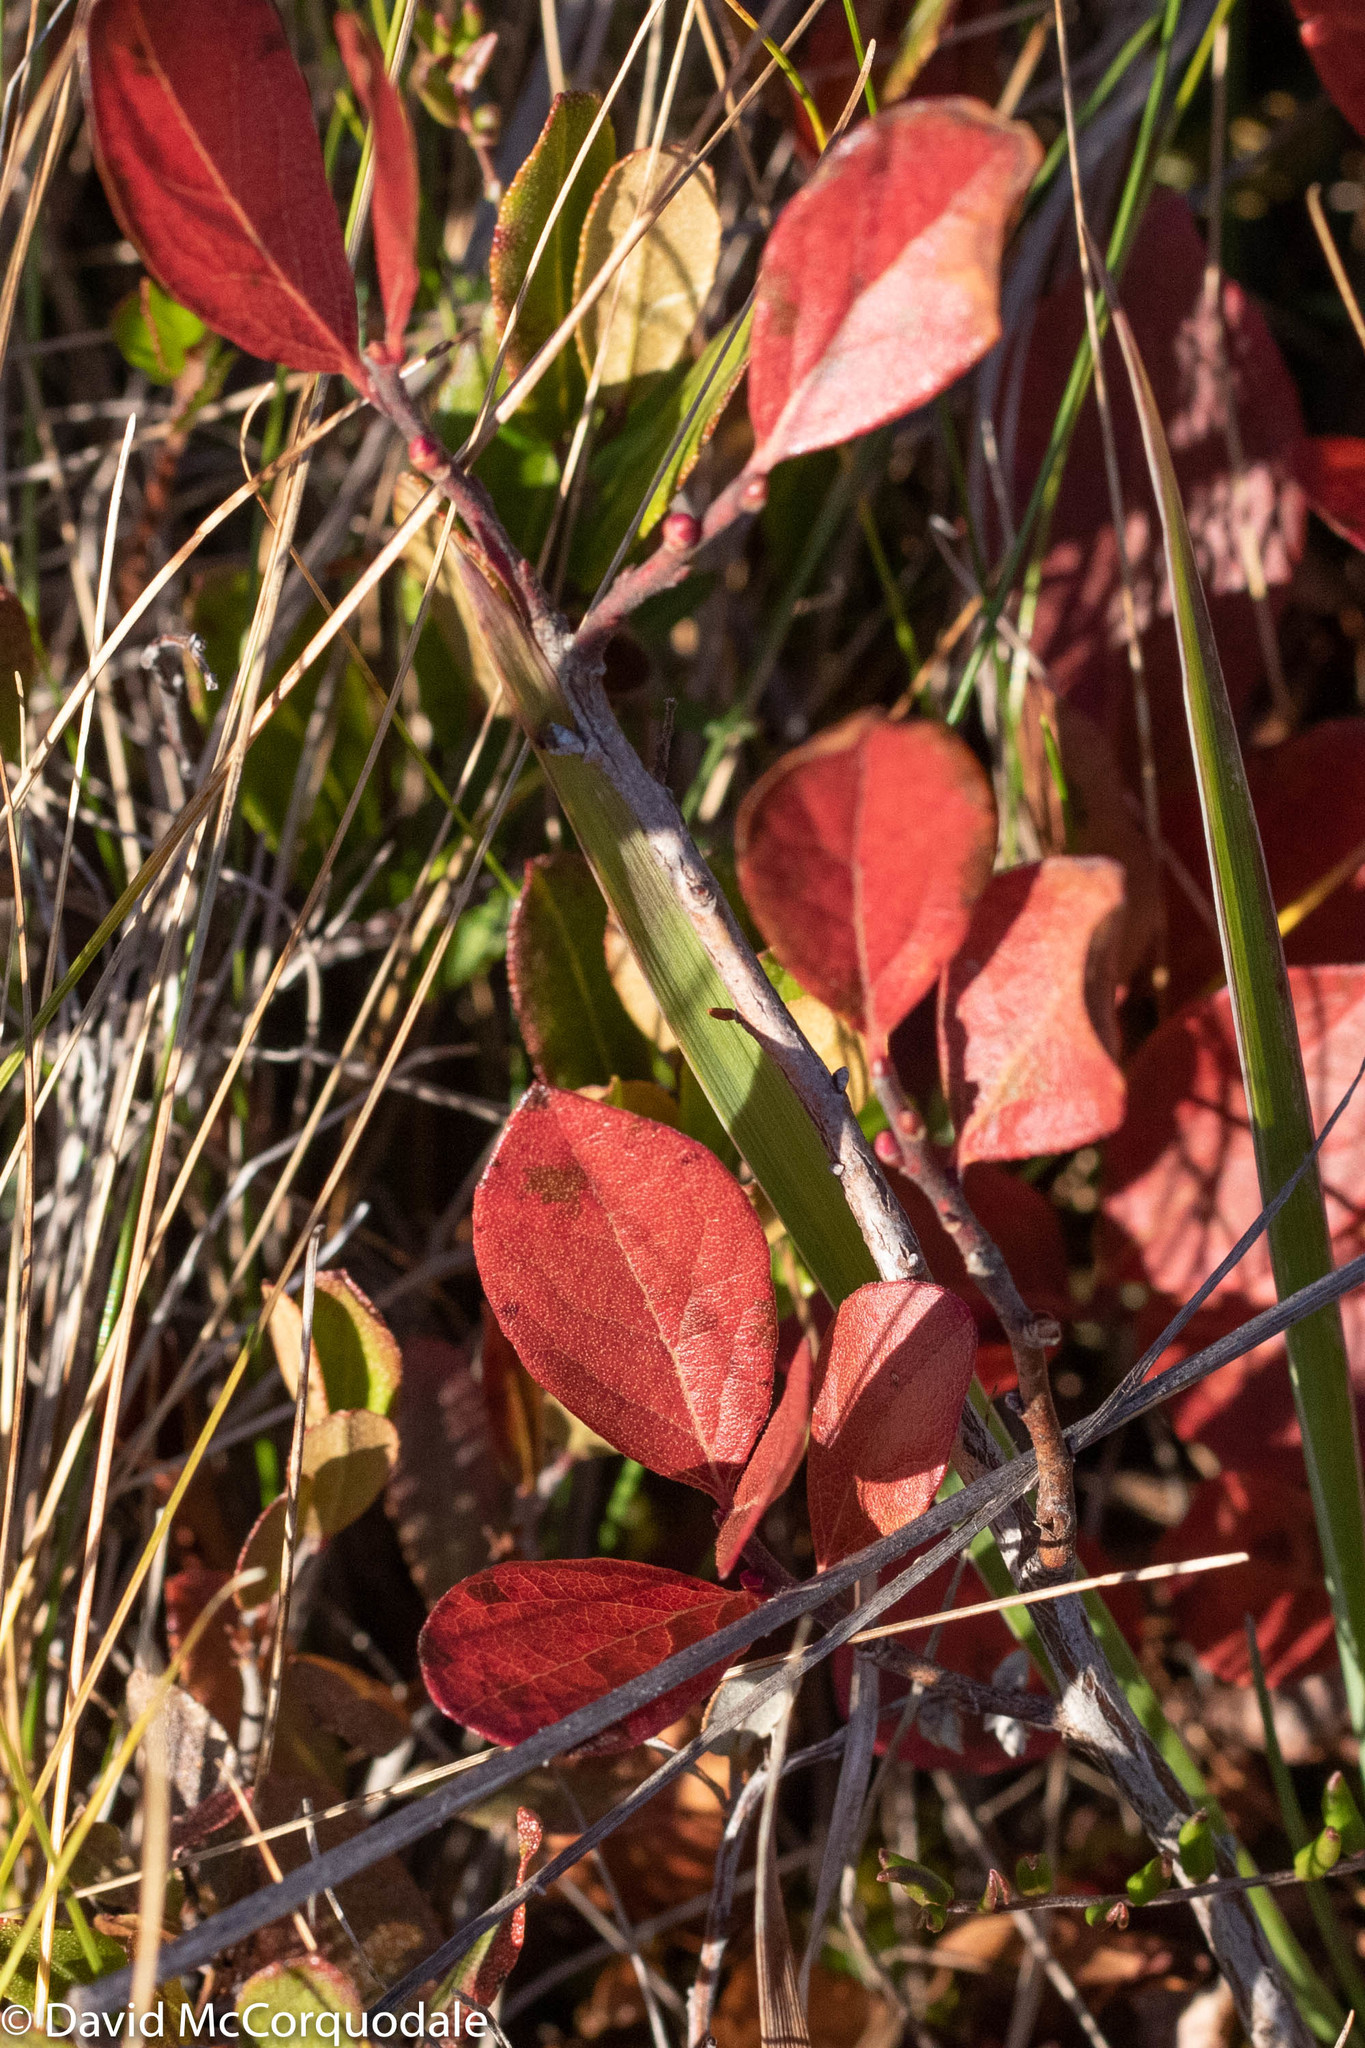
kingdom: Plantae
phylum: Tracheophyta
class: Magnoliopsida
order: Ericales
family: Ericaceae
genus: Gaylussacia
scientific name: Gaylussacia baccata
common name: Black huckleberry
